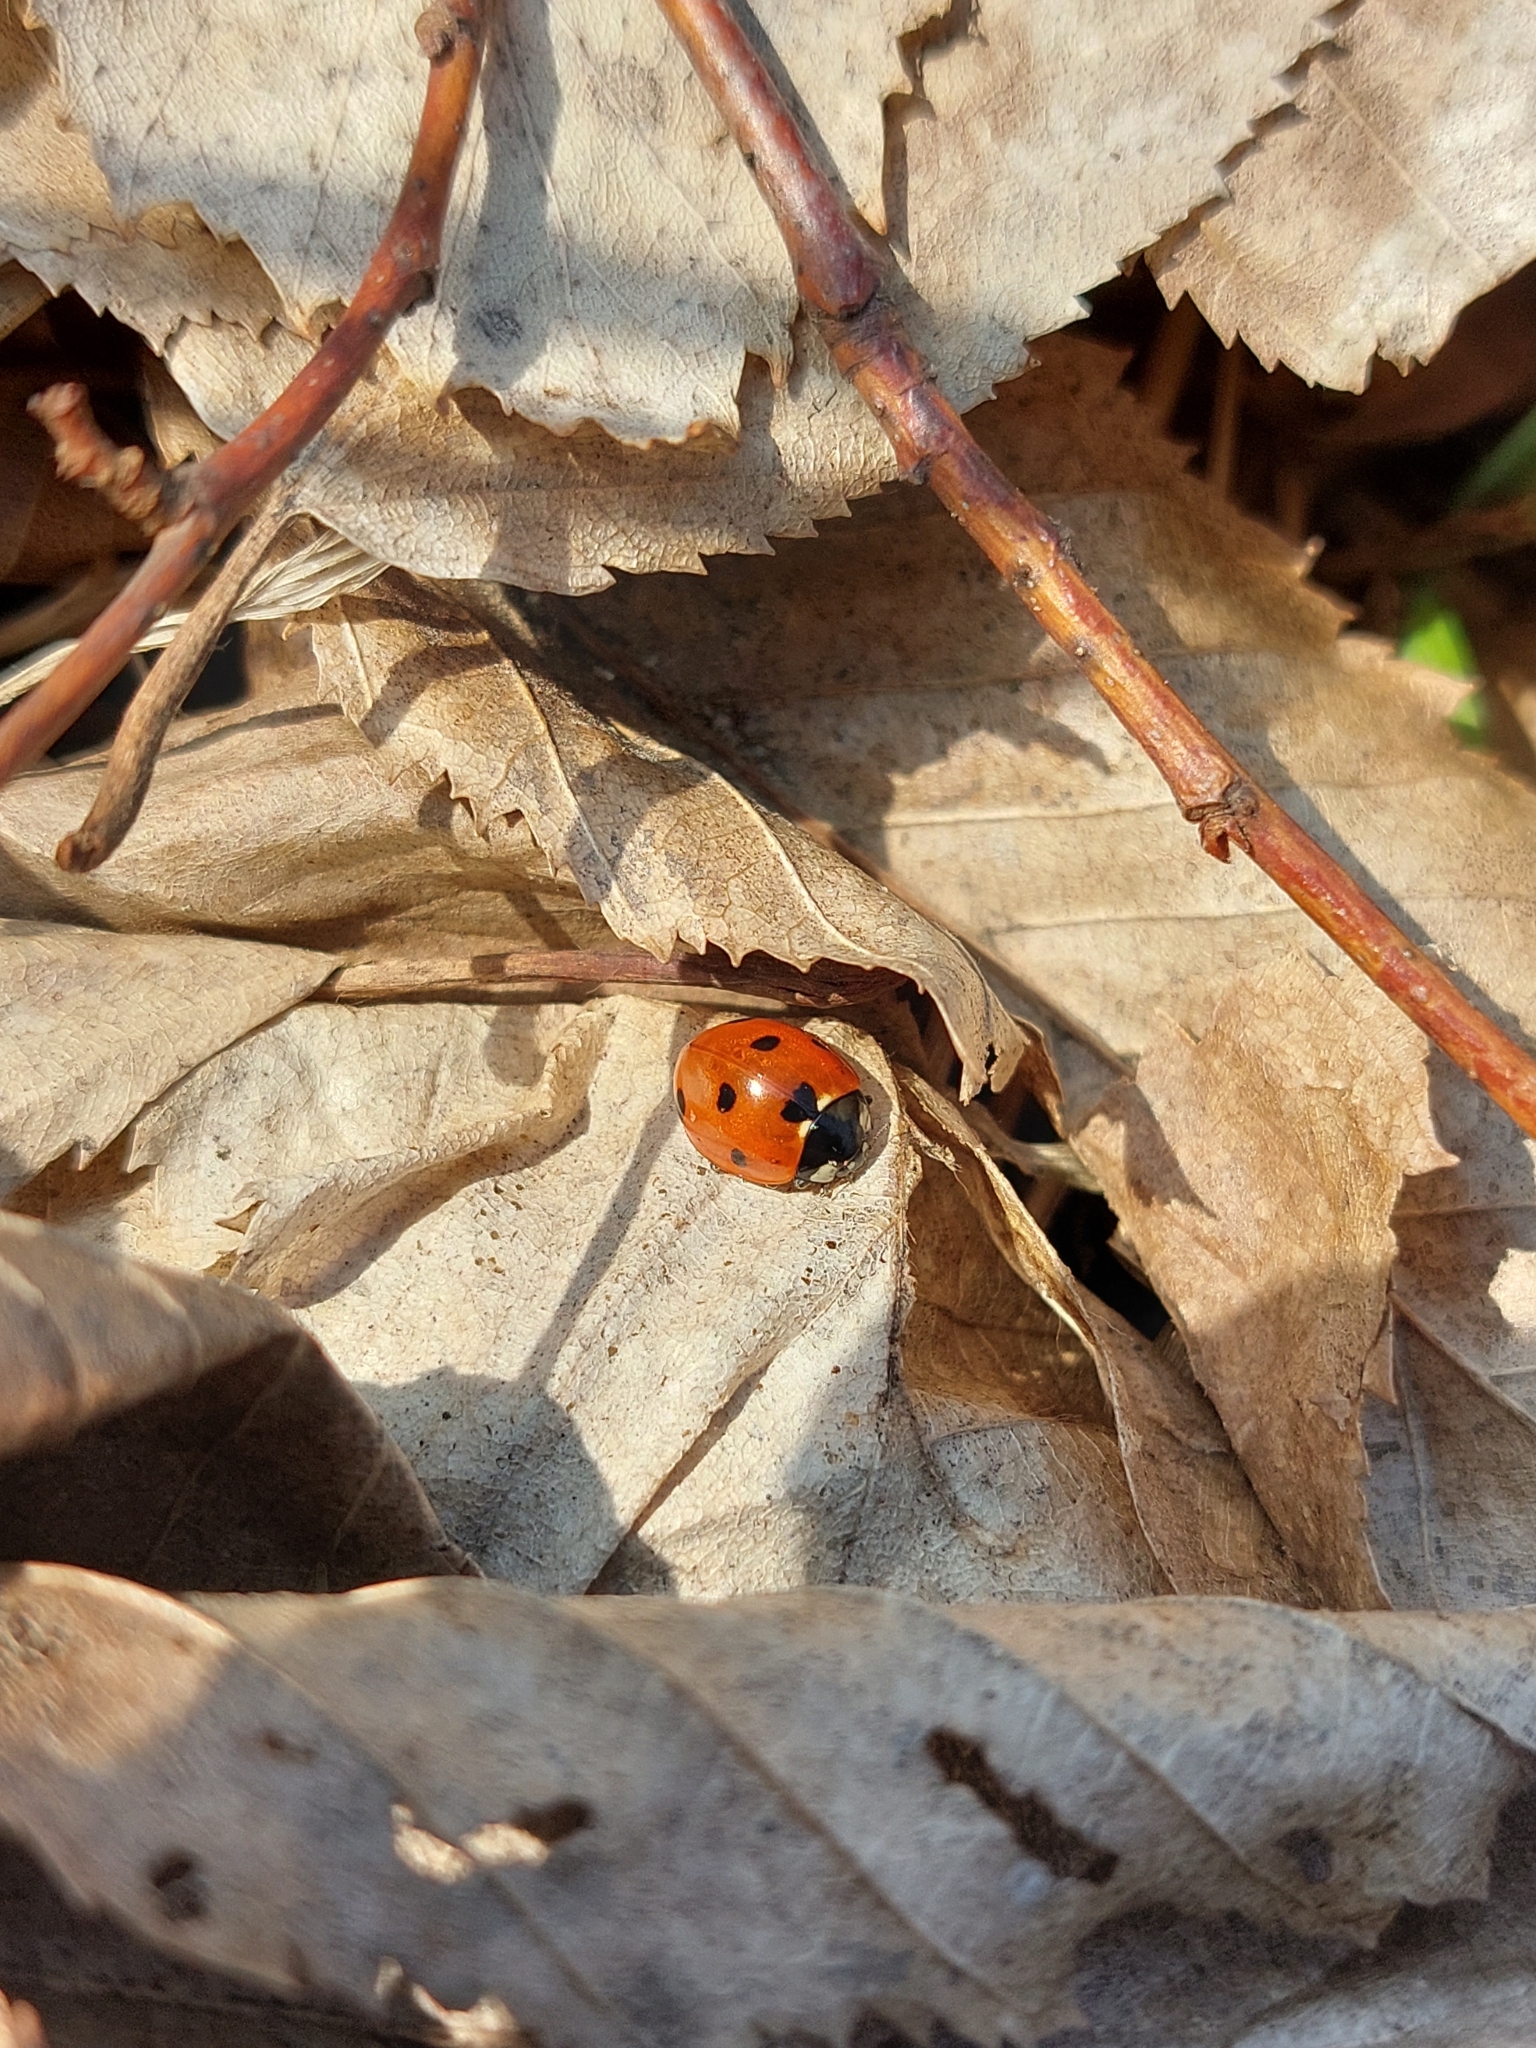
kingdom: Animalia
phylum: Arthropoda
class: Insecta
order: Coleoptera
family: Coccinellidae
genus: Coccinella
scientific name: Coccinella septempunctata
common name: Sevenspotted lady beetle
